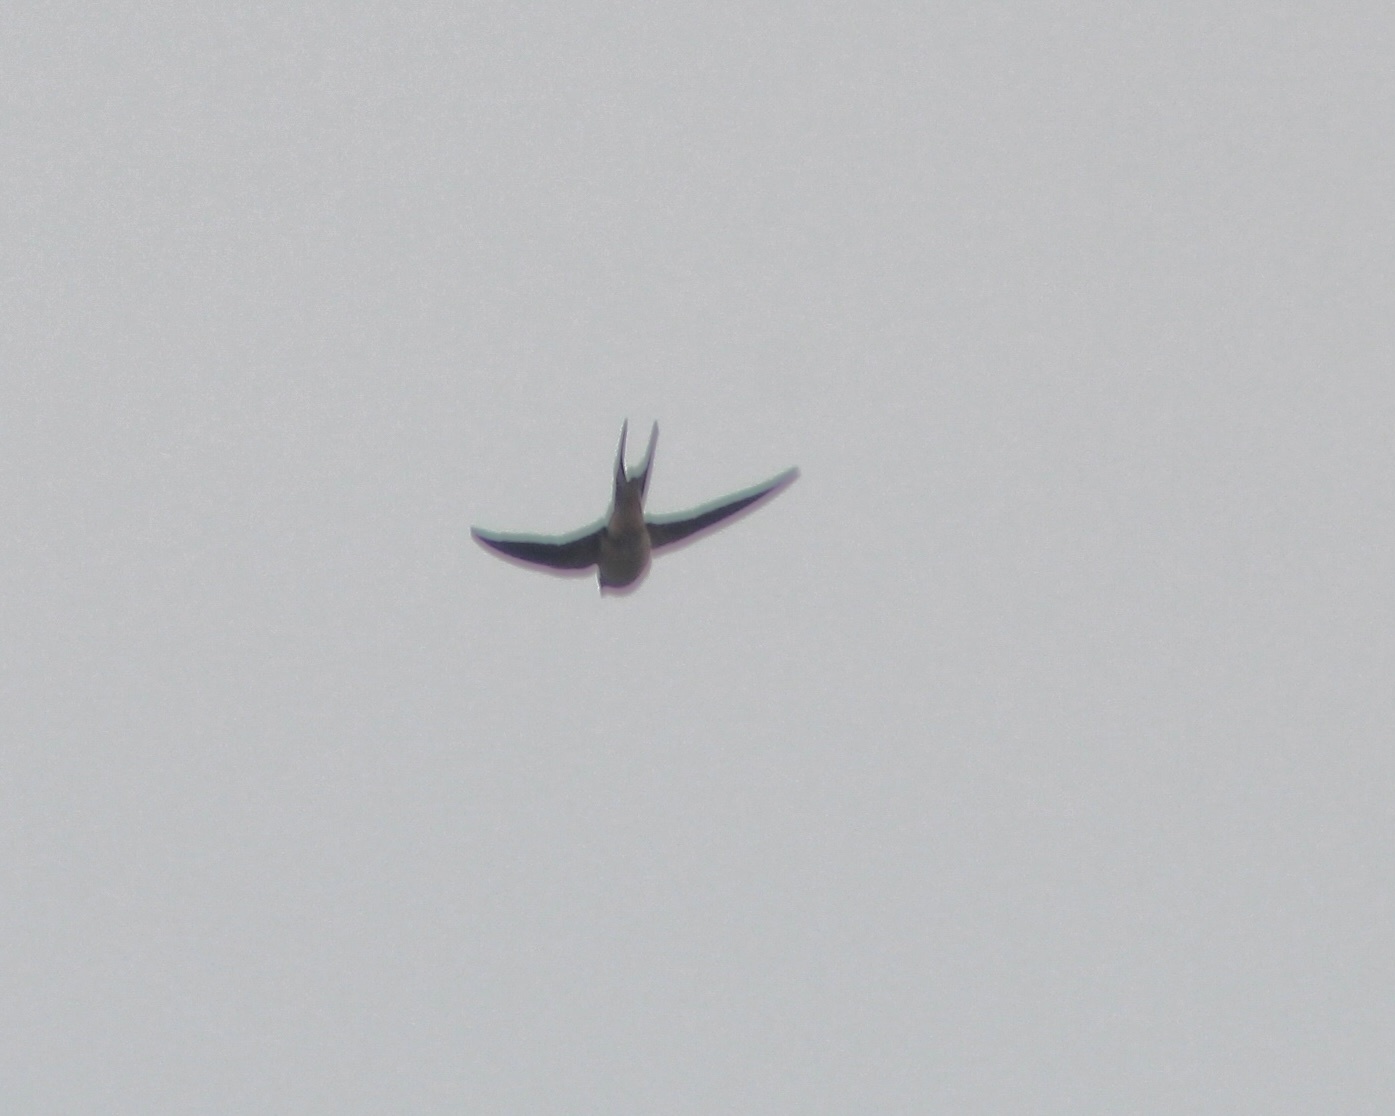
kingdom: Animalia
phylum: Chordata
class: Aves
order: Passeriformes
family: Hirundinidae
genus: Hirundo
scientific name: Hirundo rustica
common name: Barn swallow
